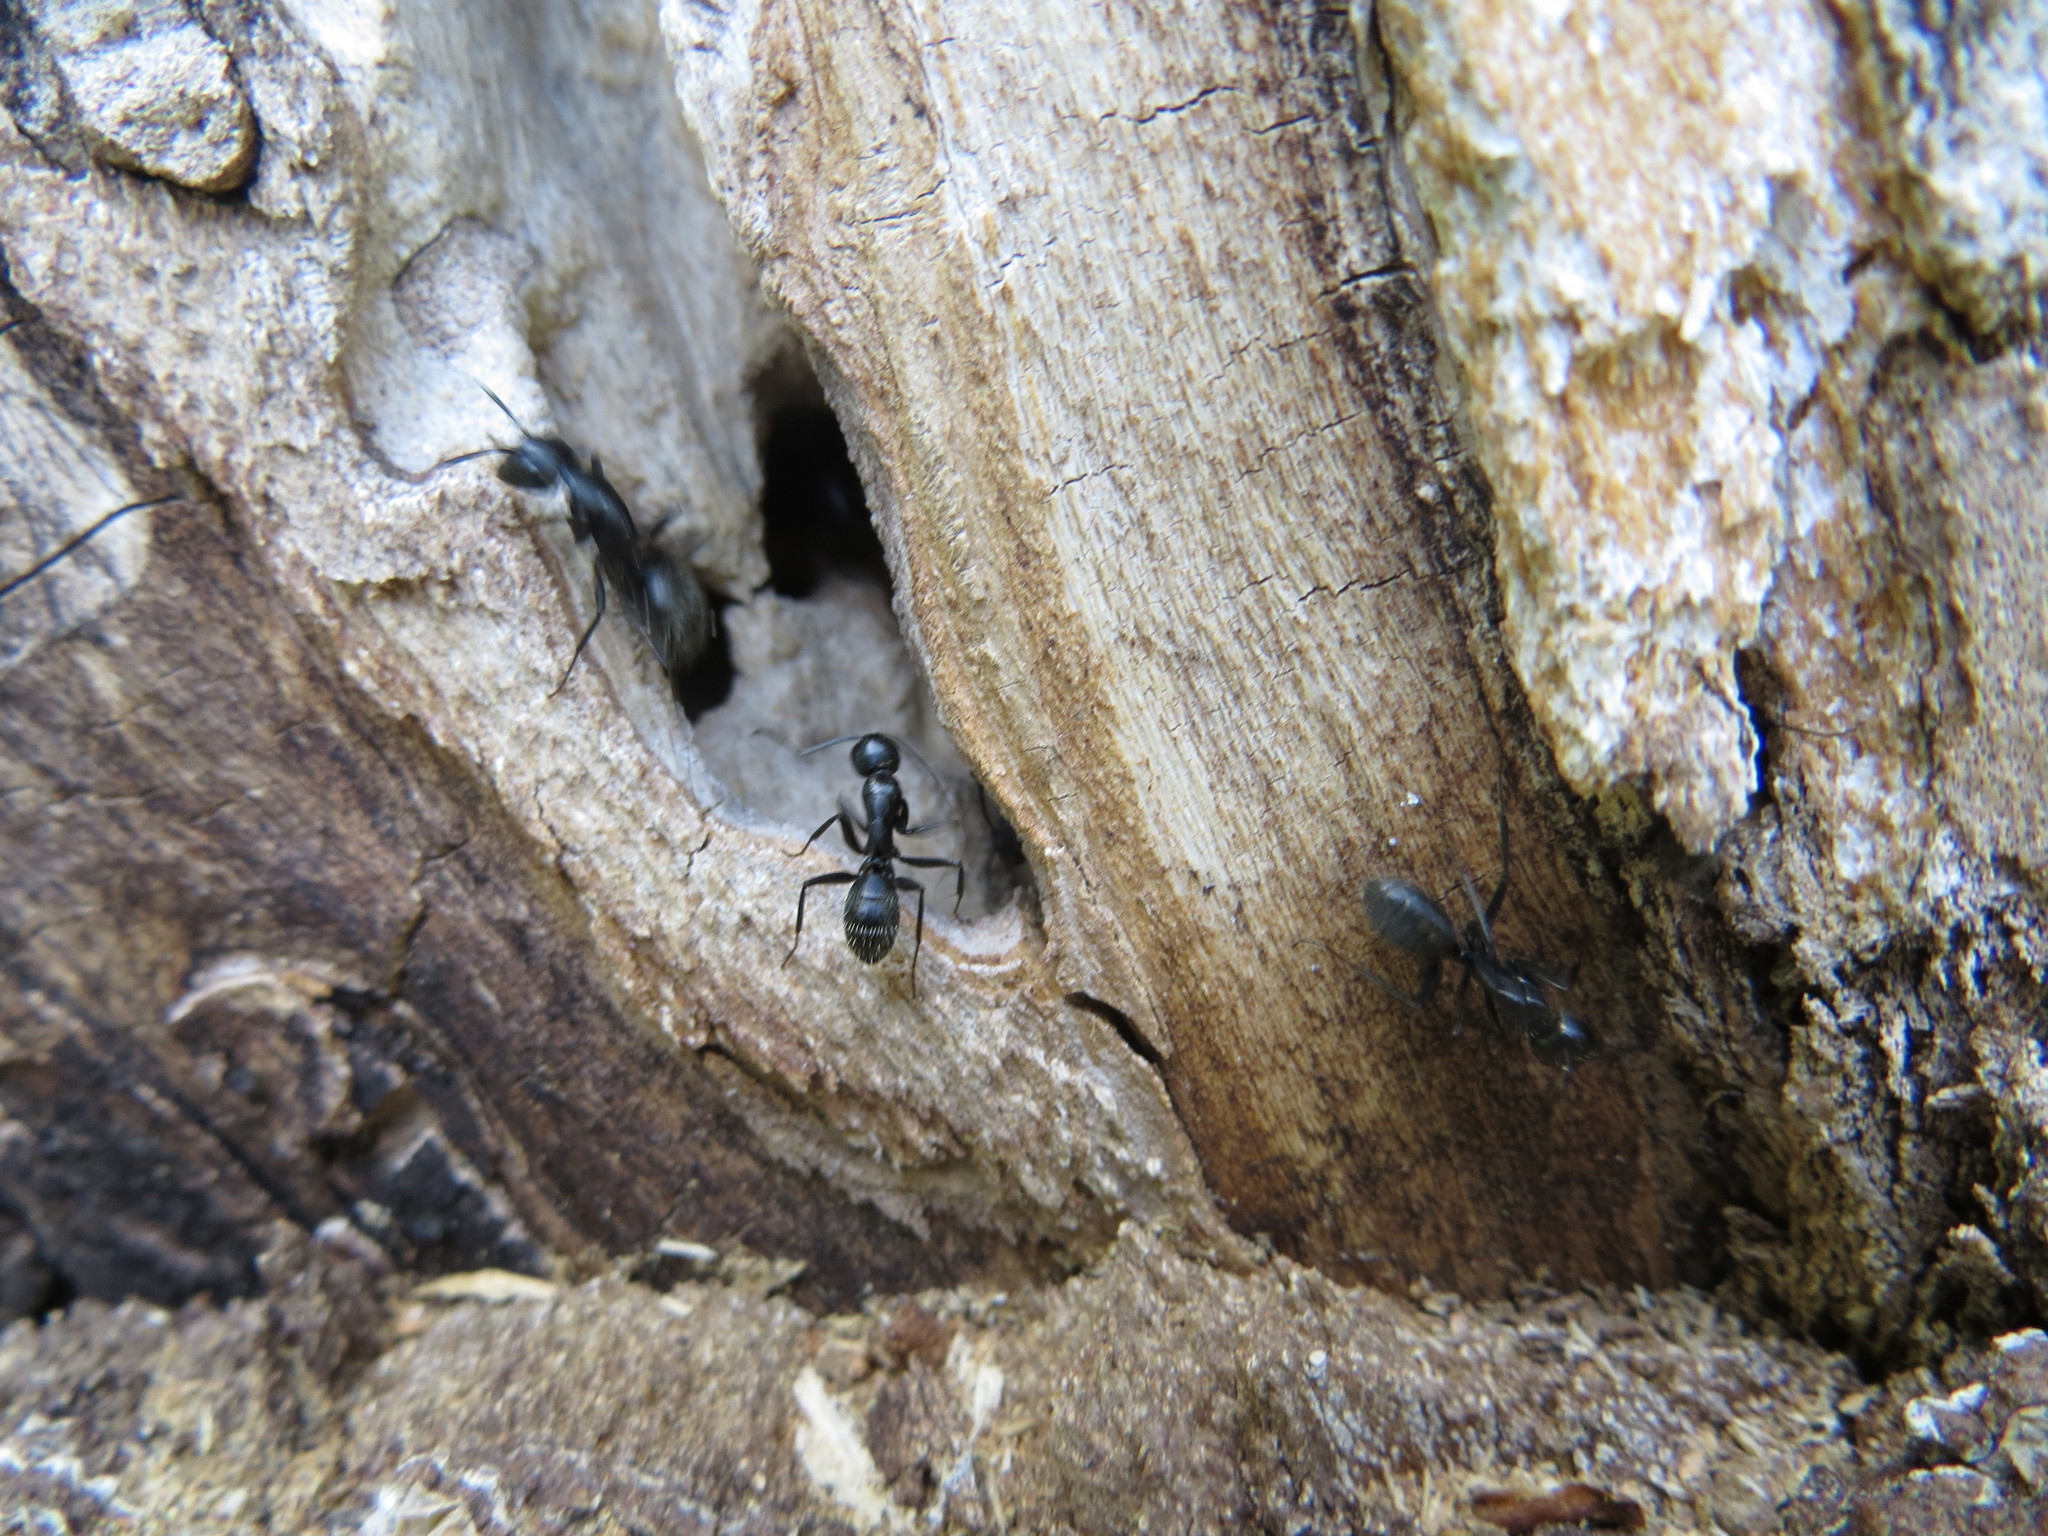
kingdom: Animalia
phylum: Arthropoda
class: Insecta
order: Hymenoptera
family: Formicidae
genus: Camponotus
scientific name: Camponotus vagus
